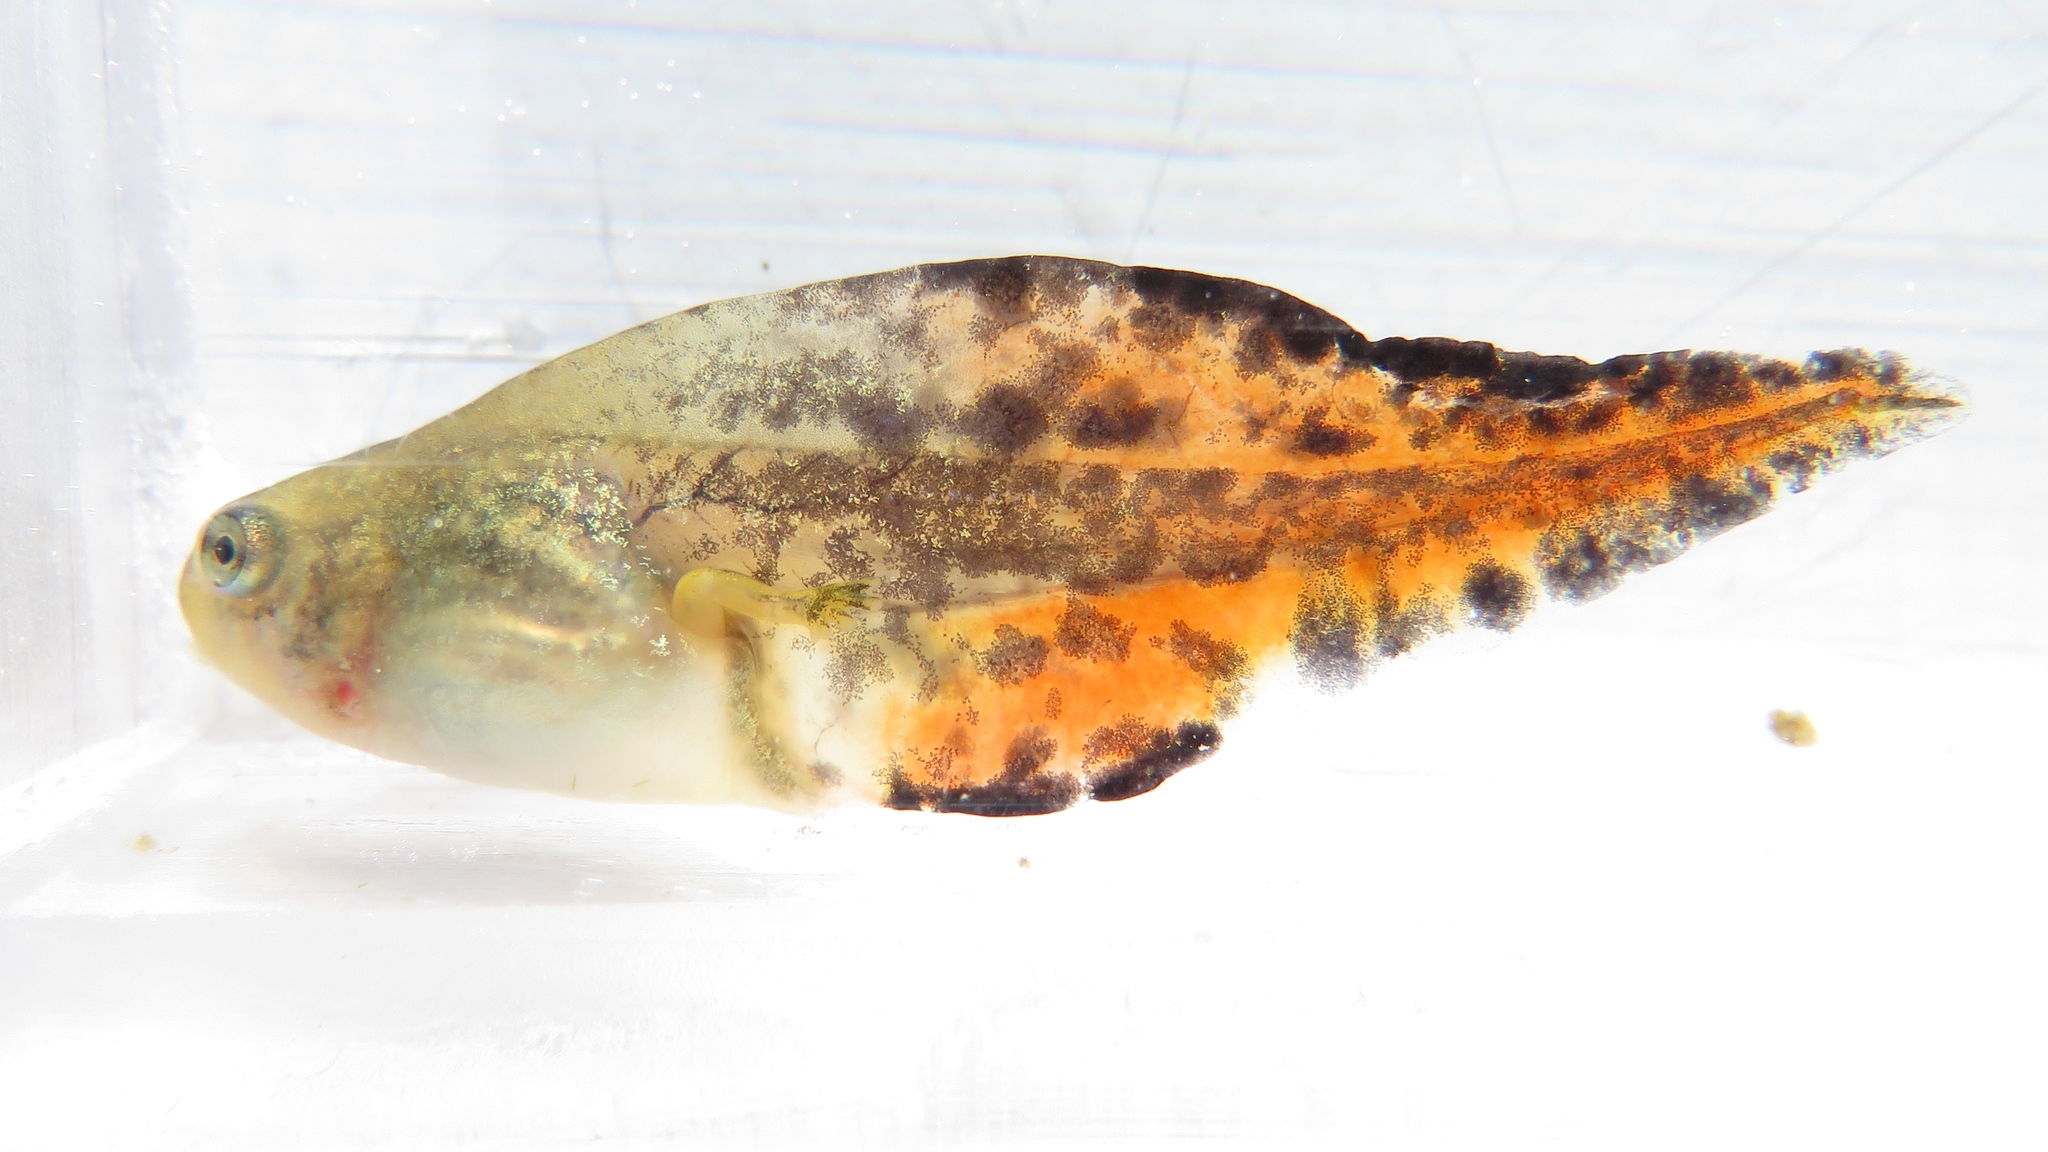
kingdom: Animalia
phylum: Chordata
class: Amphibia
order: Anura
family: Hylidae
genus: Dryophytes
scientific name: Dryophytes versicolor
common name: Gray treefrog
